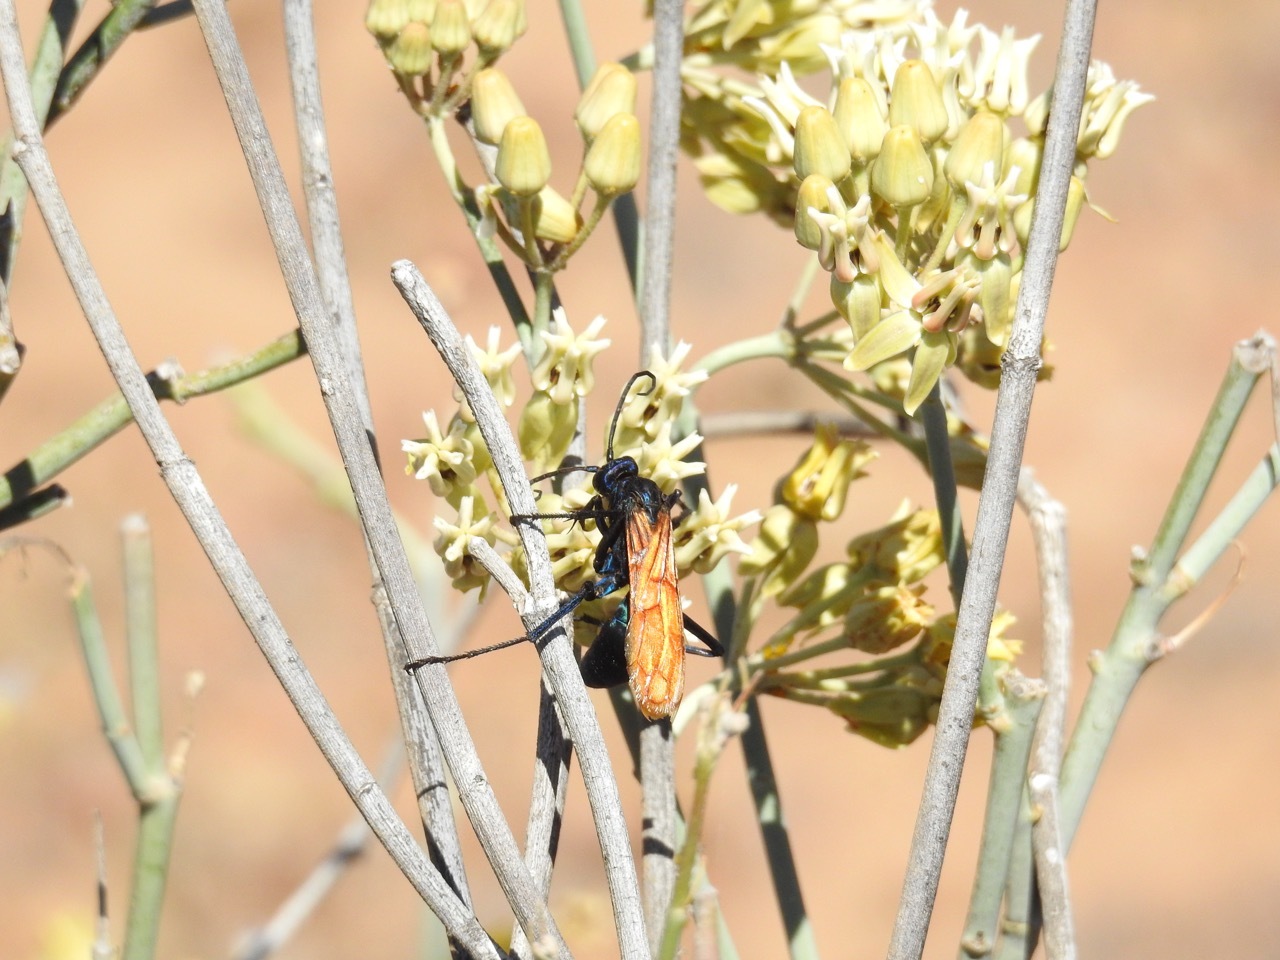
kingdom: Animalia
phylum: Arthropoda
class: Insecta
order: Hymenoptera
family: Pompilidae
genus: Pepsis
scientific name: Pepsis thisbe
